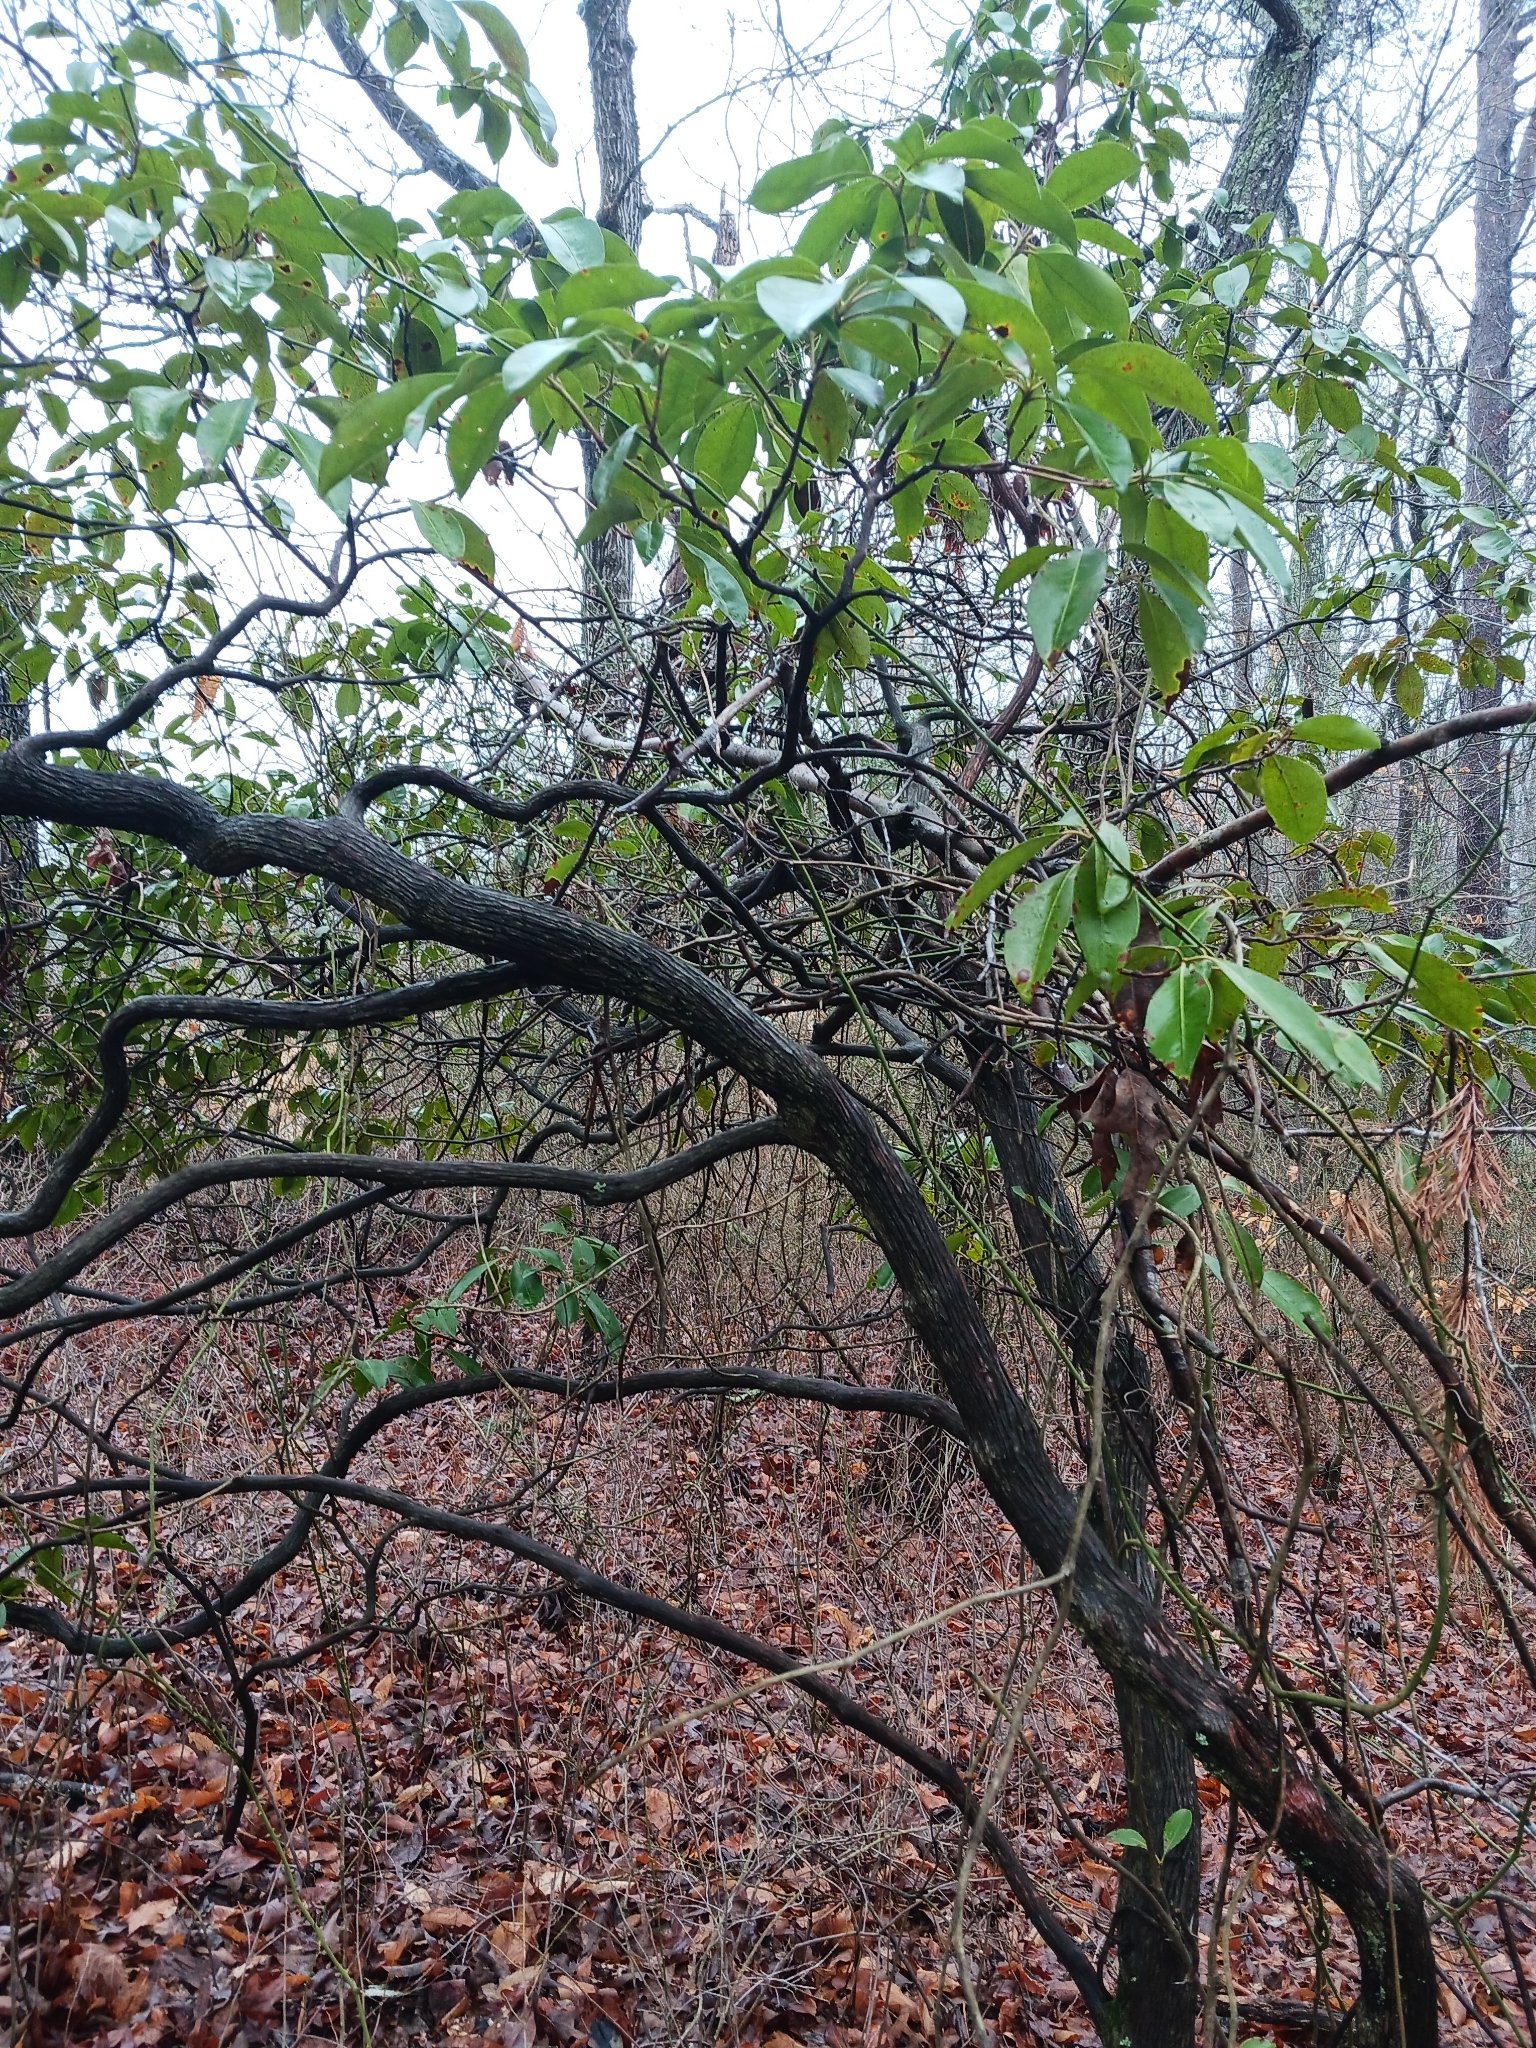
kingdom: Plantae
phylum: Tracheophyta
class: Magnoliopsida
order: Ericales
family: Ericaceae
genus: Kalmia
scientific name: Kalmia latifolia
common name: Mountain-laurel
